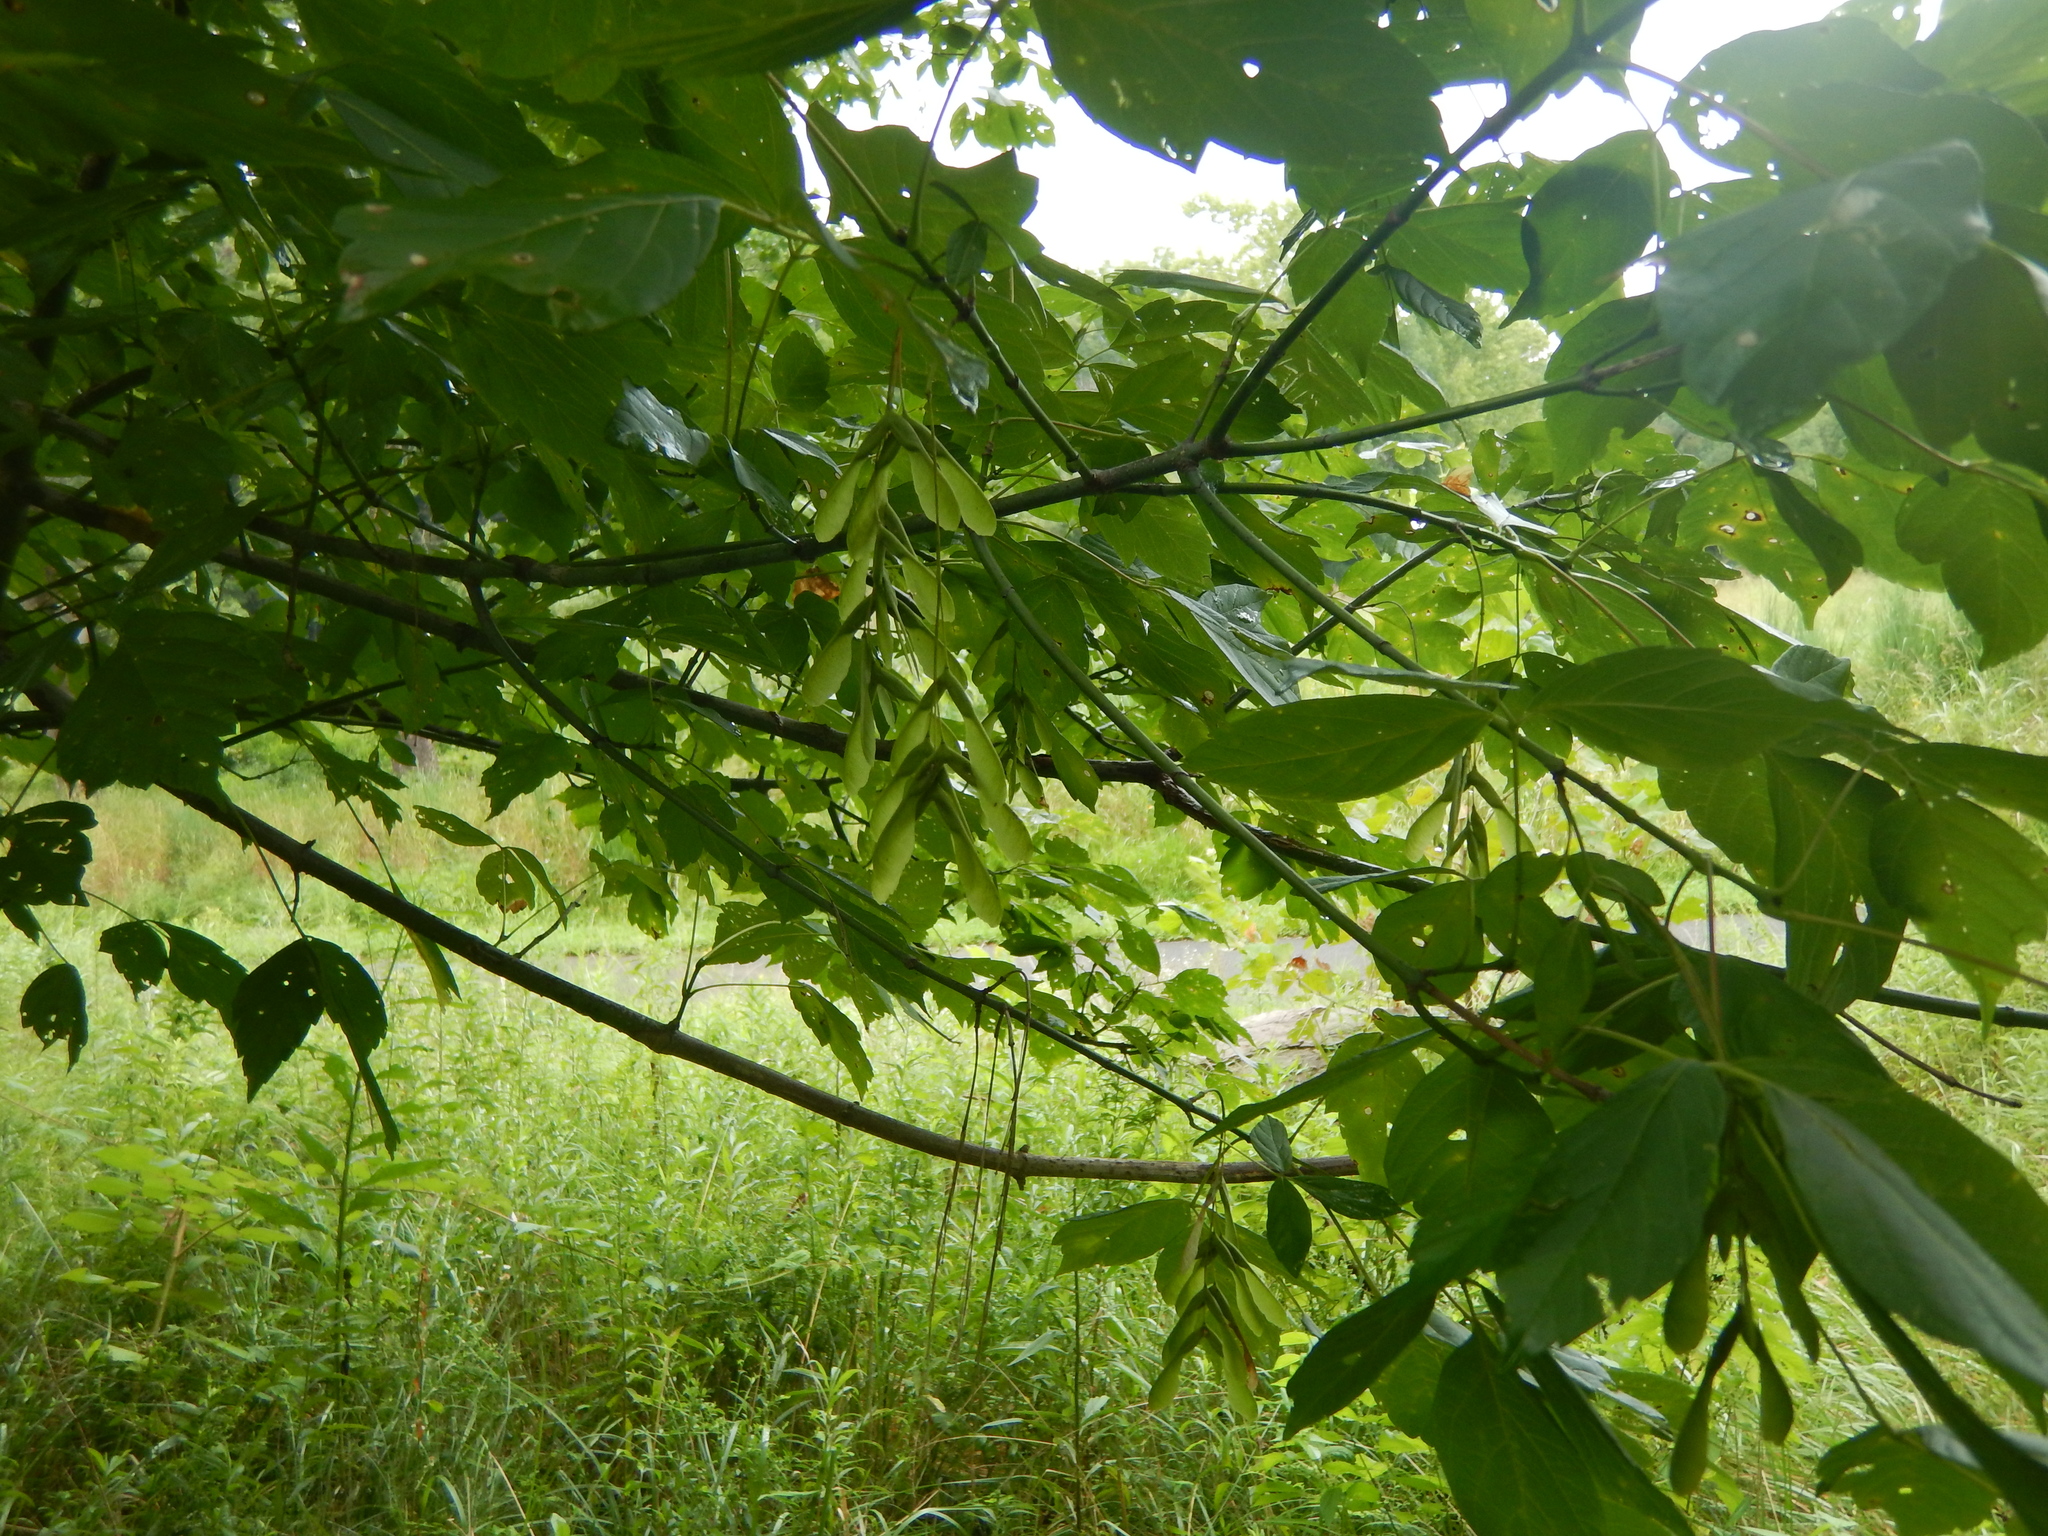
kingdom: Plantae
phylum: Tracheophyta
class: Magnoliopsida
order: Sapindales
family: Sapindaceae
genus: Acer
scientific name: Acer negundo
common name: Ashleaf maple
